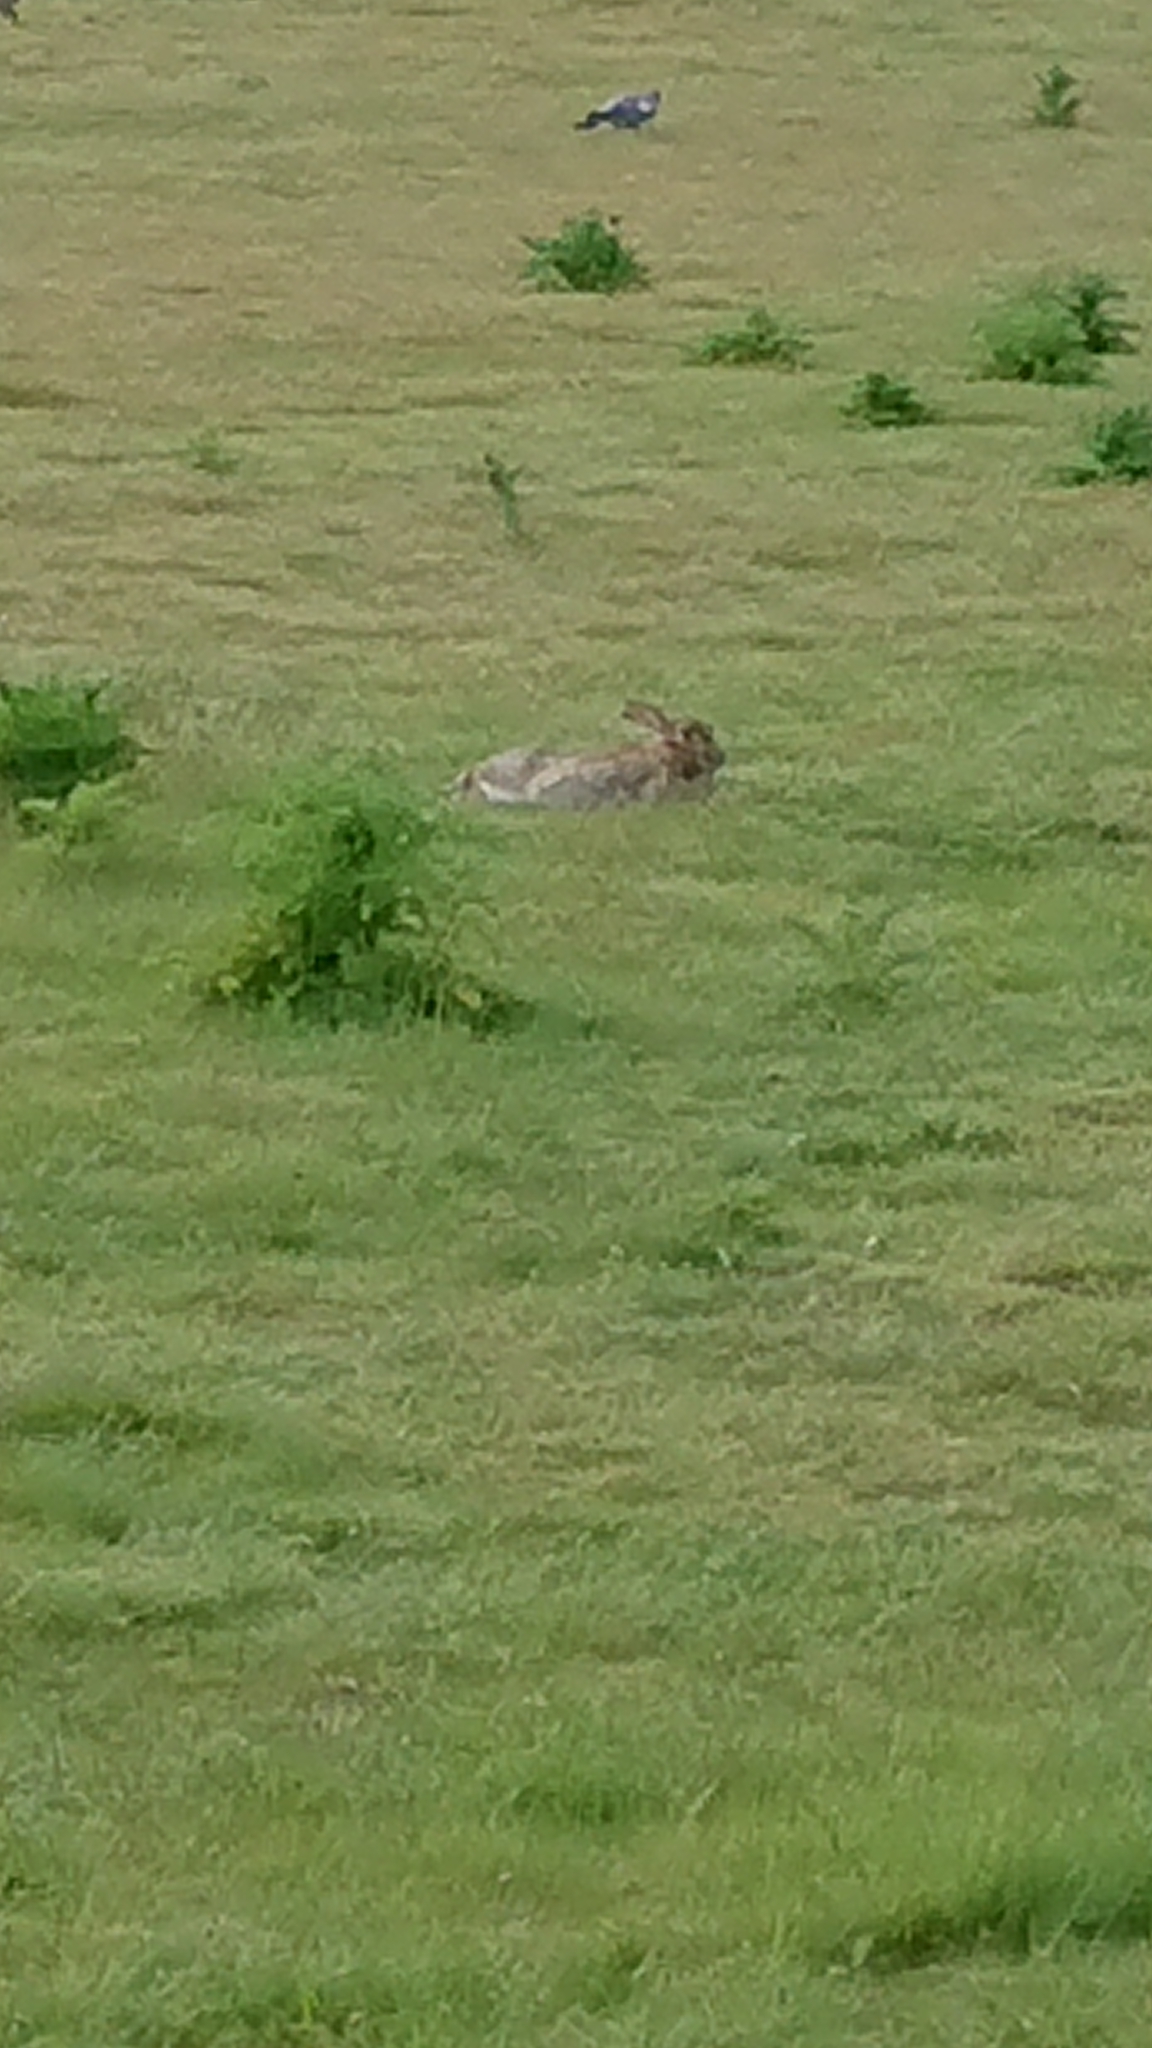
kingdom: Animalia
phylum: Chordata
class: Mammalia
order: Lagomorpha
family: Leporidae
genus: Oryctolagus
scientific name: Oryctolagus cuniculus
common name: European rabbit
